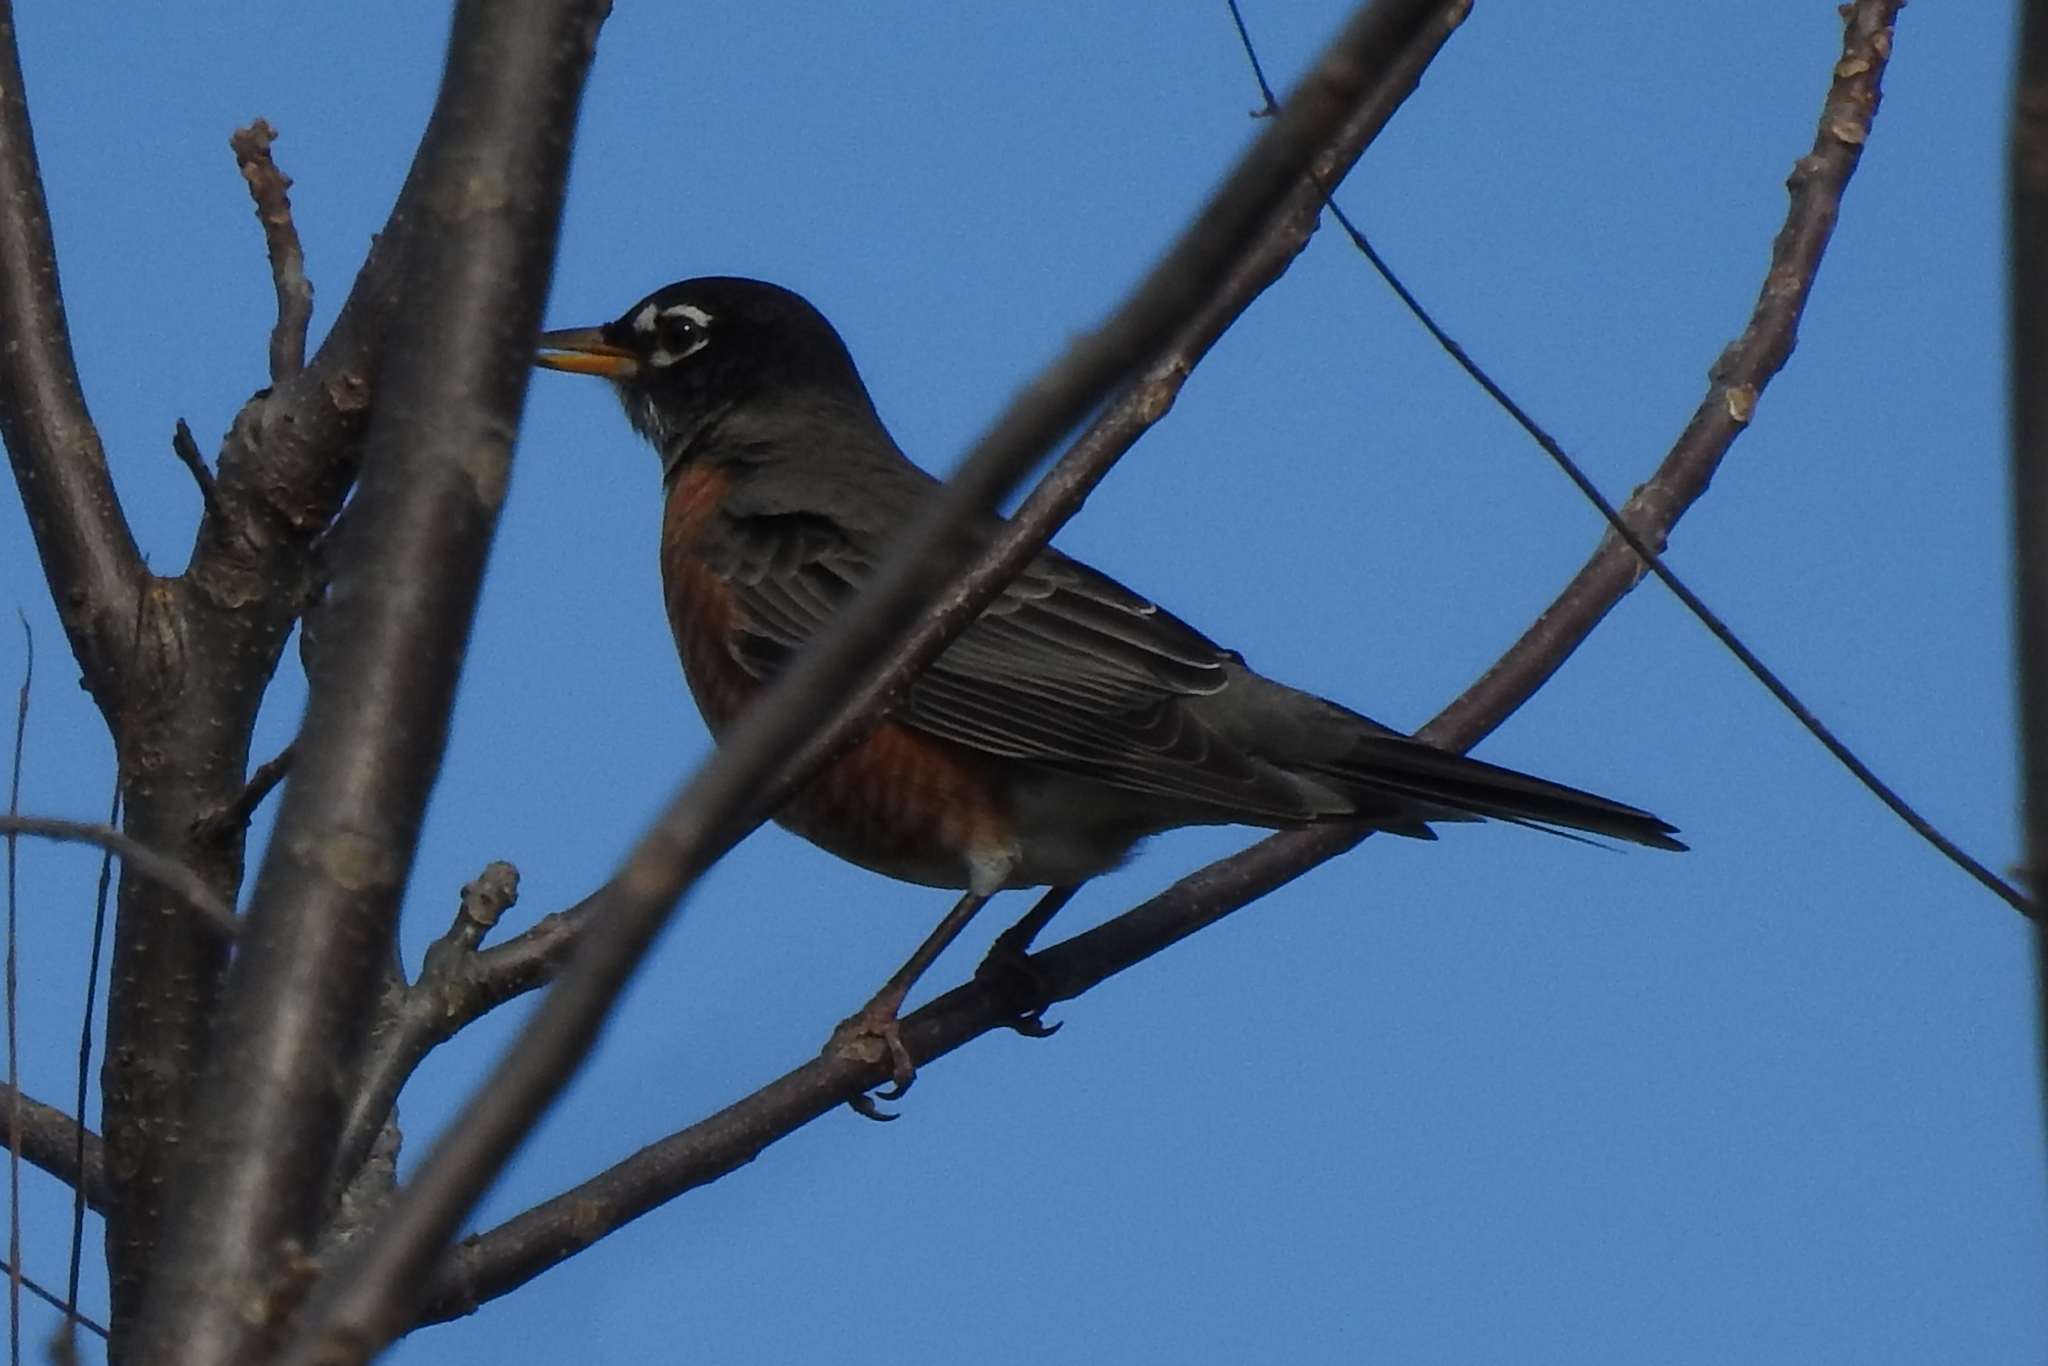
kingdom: Animalia
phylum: Chordata
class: Aves
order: Passeriformes
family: Turdidae
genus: Turdus
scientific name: Turdus migratorius
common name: American robin
